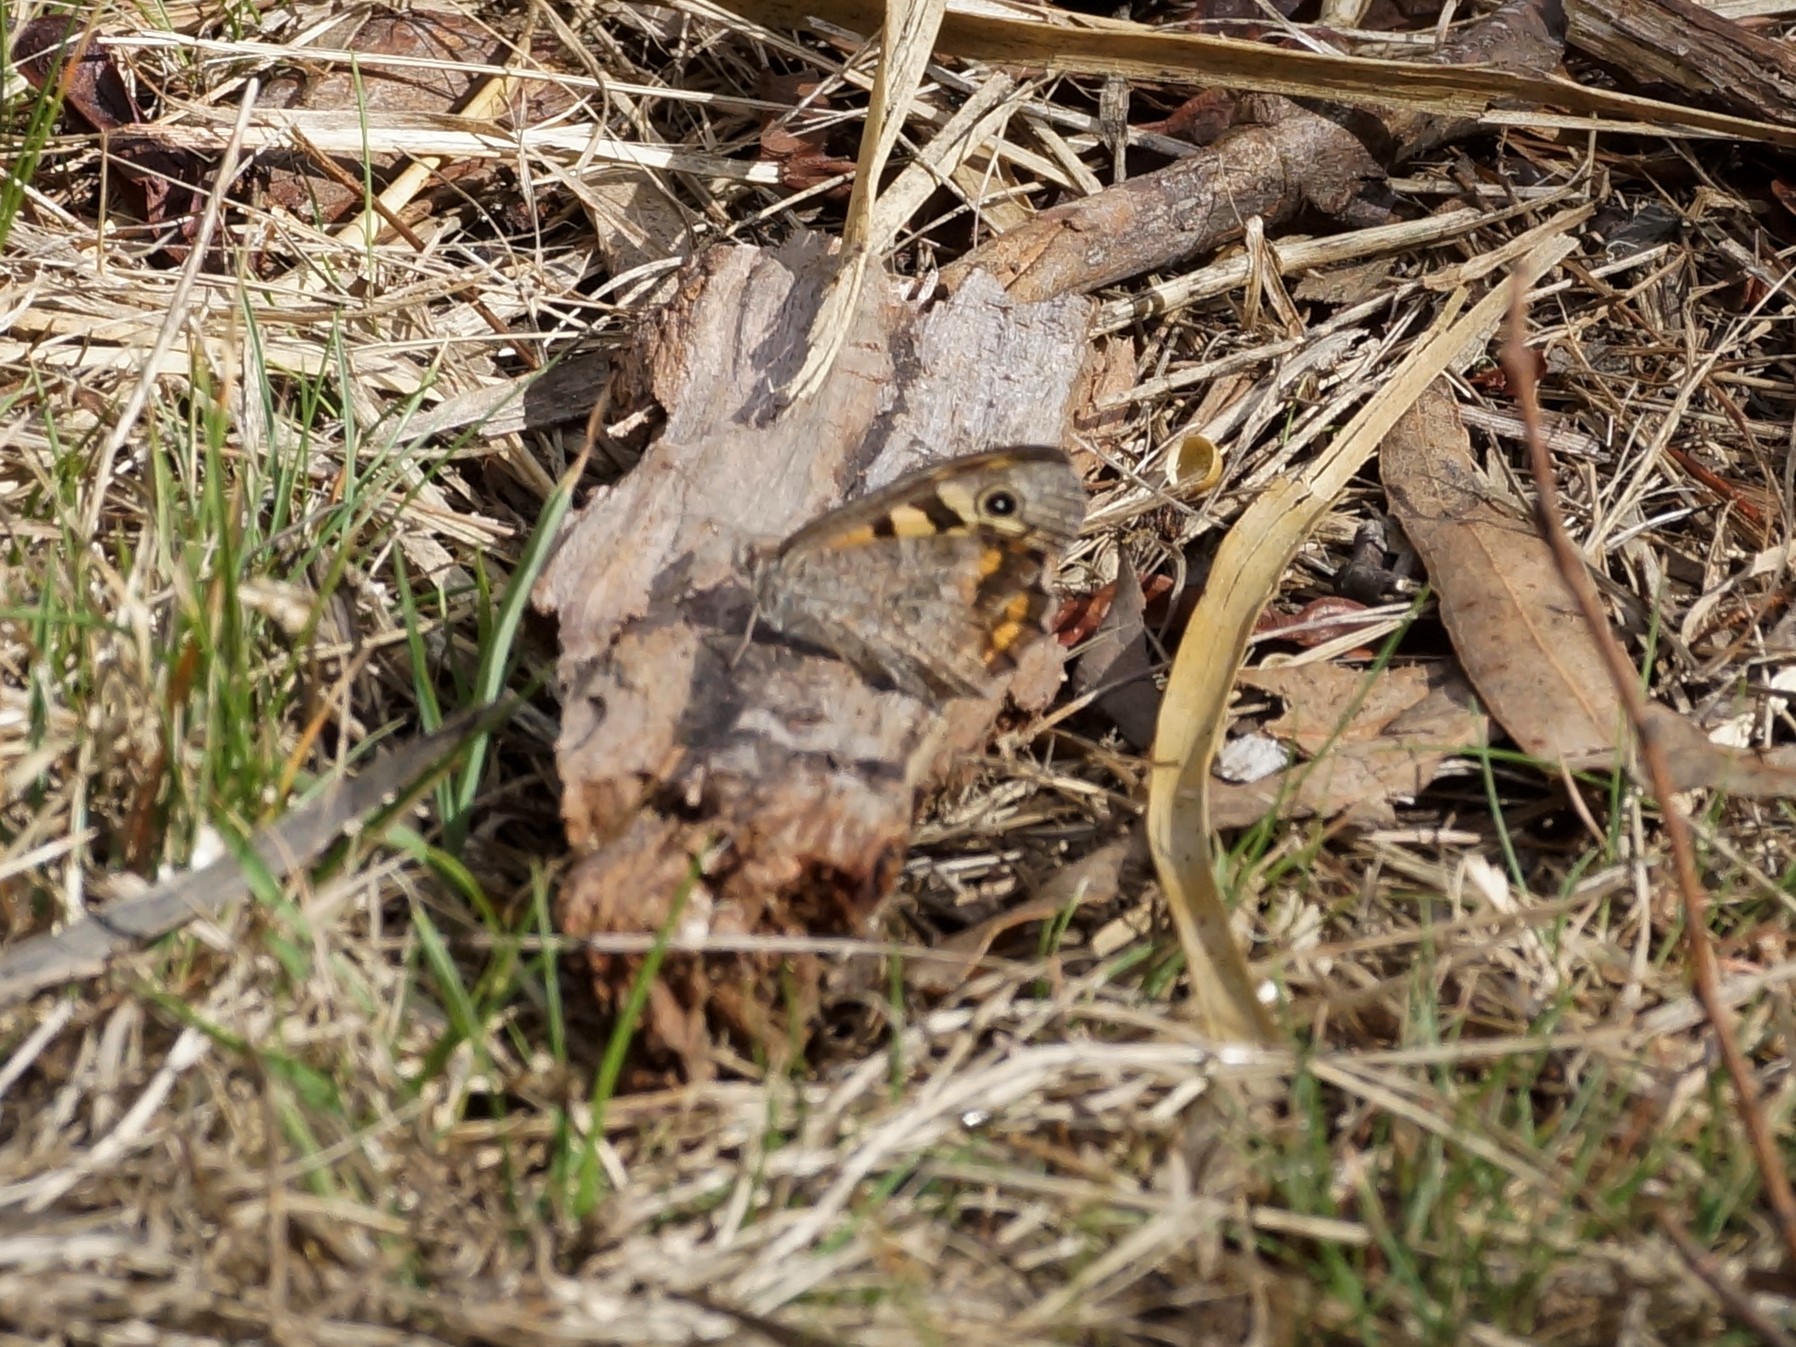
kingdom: Animalia
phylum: Arthropoda
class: Insecta
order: Lepidoptera
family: Nymphalidae
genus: Geitoneura
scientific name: Geitoneura klugii
